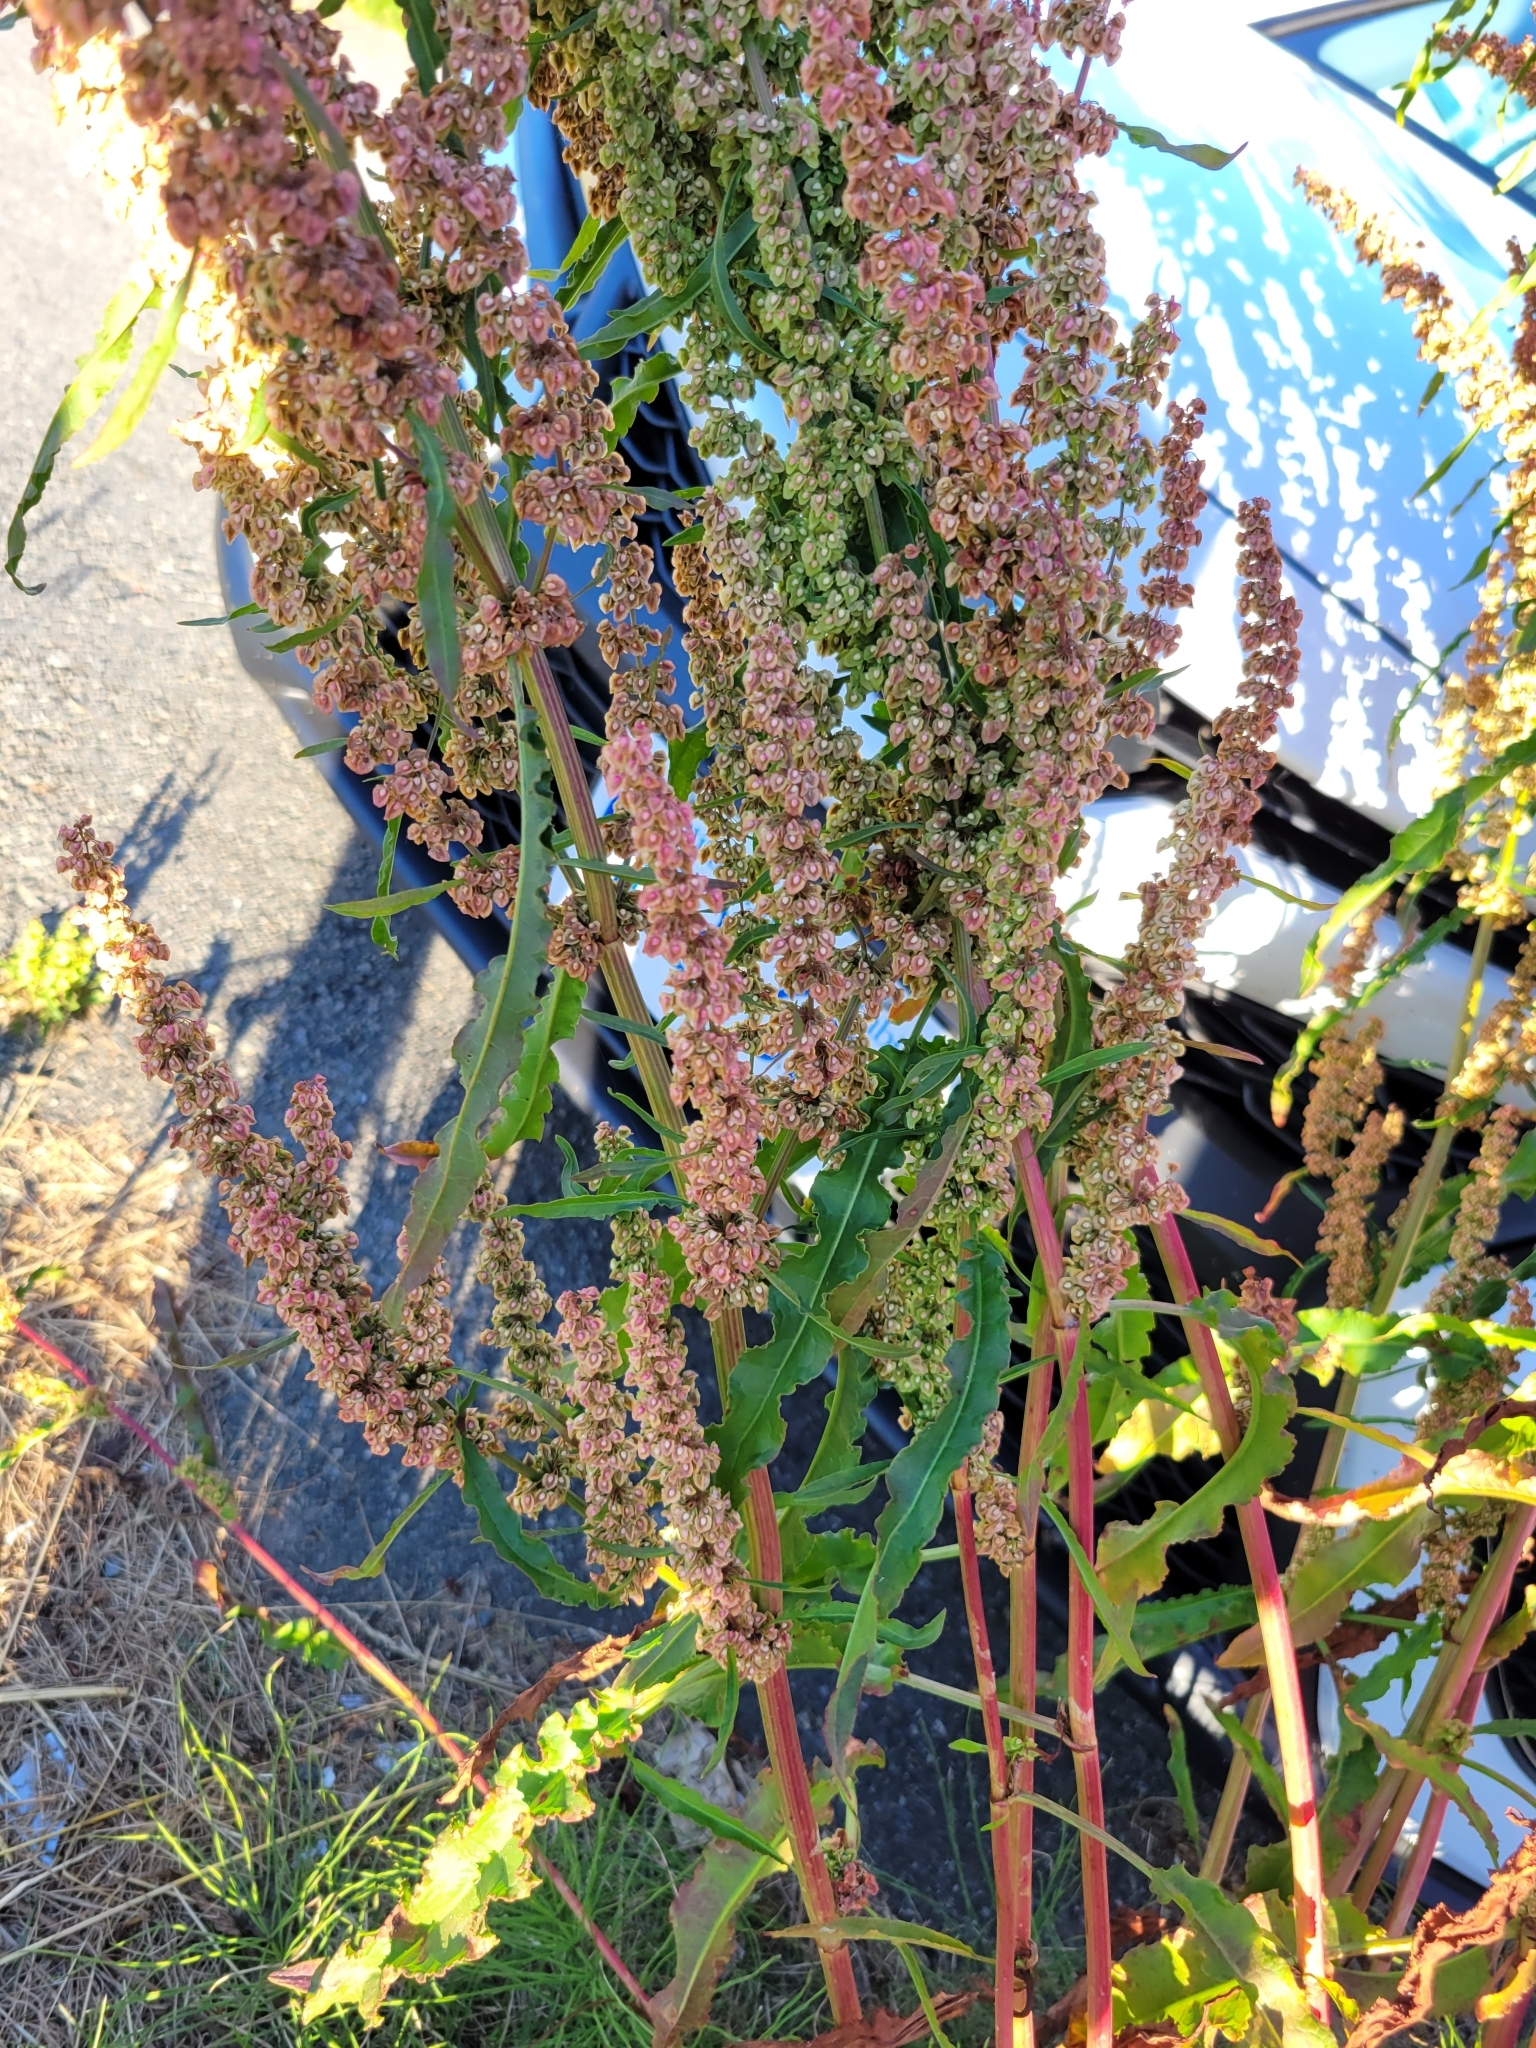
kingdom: Plantae
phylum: Tracheophyta
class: Magnoliopsida
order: Caryophyllales
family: Polygonaceae
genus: Rumex
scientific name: Rumex crispus
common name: Curled dock
